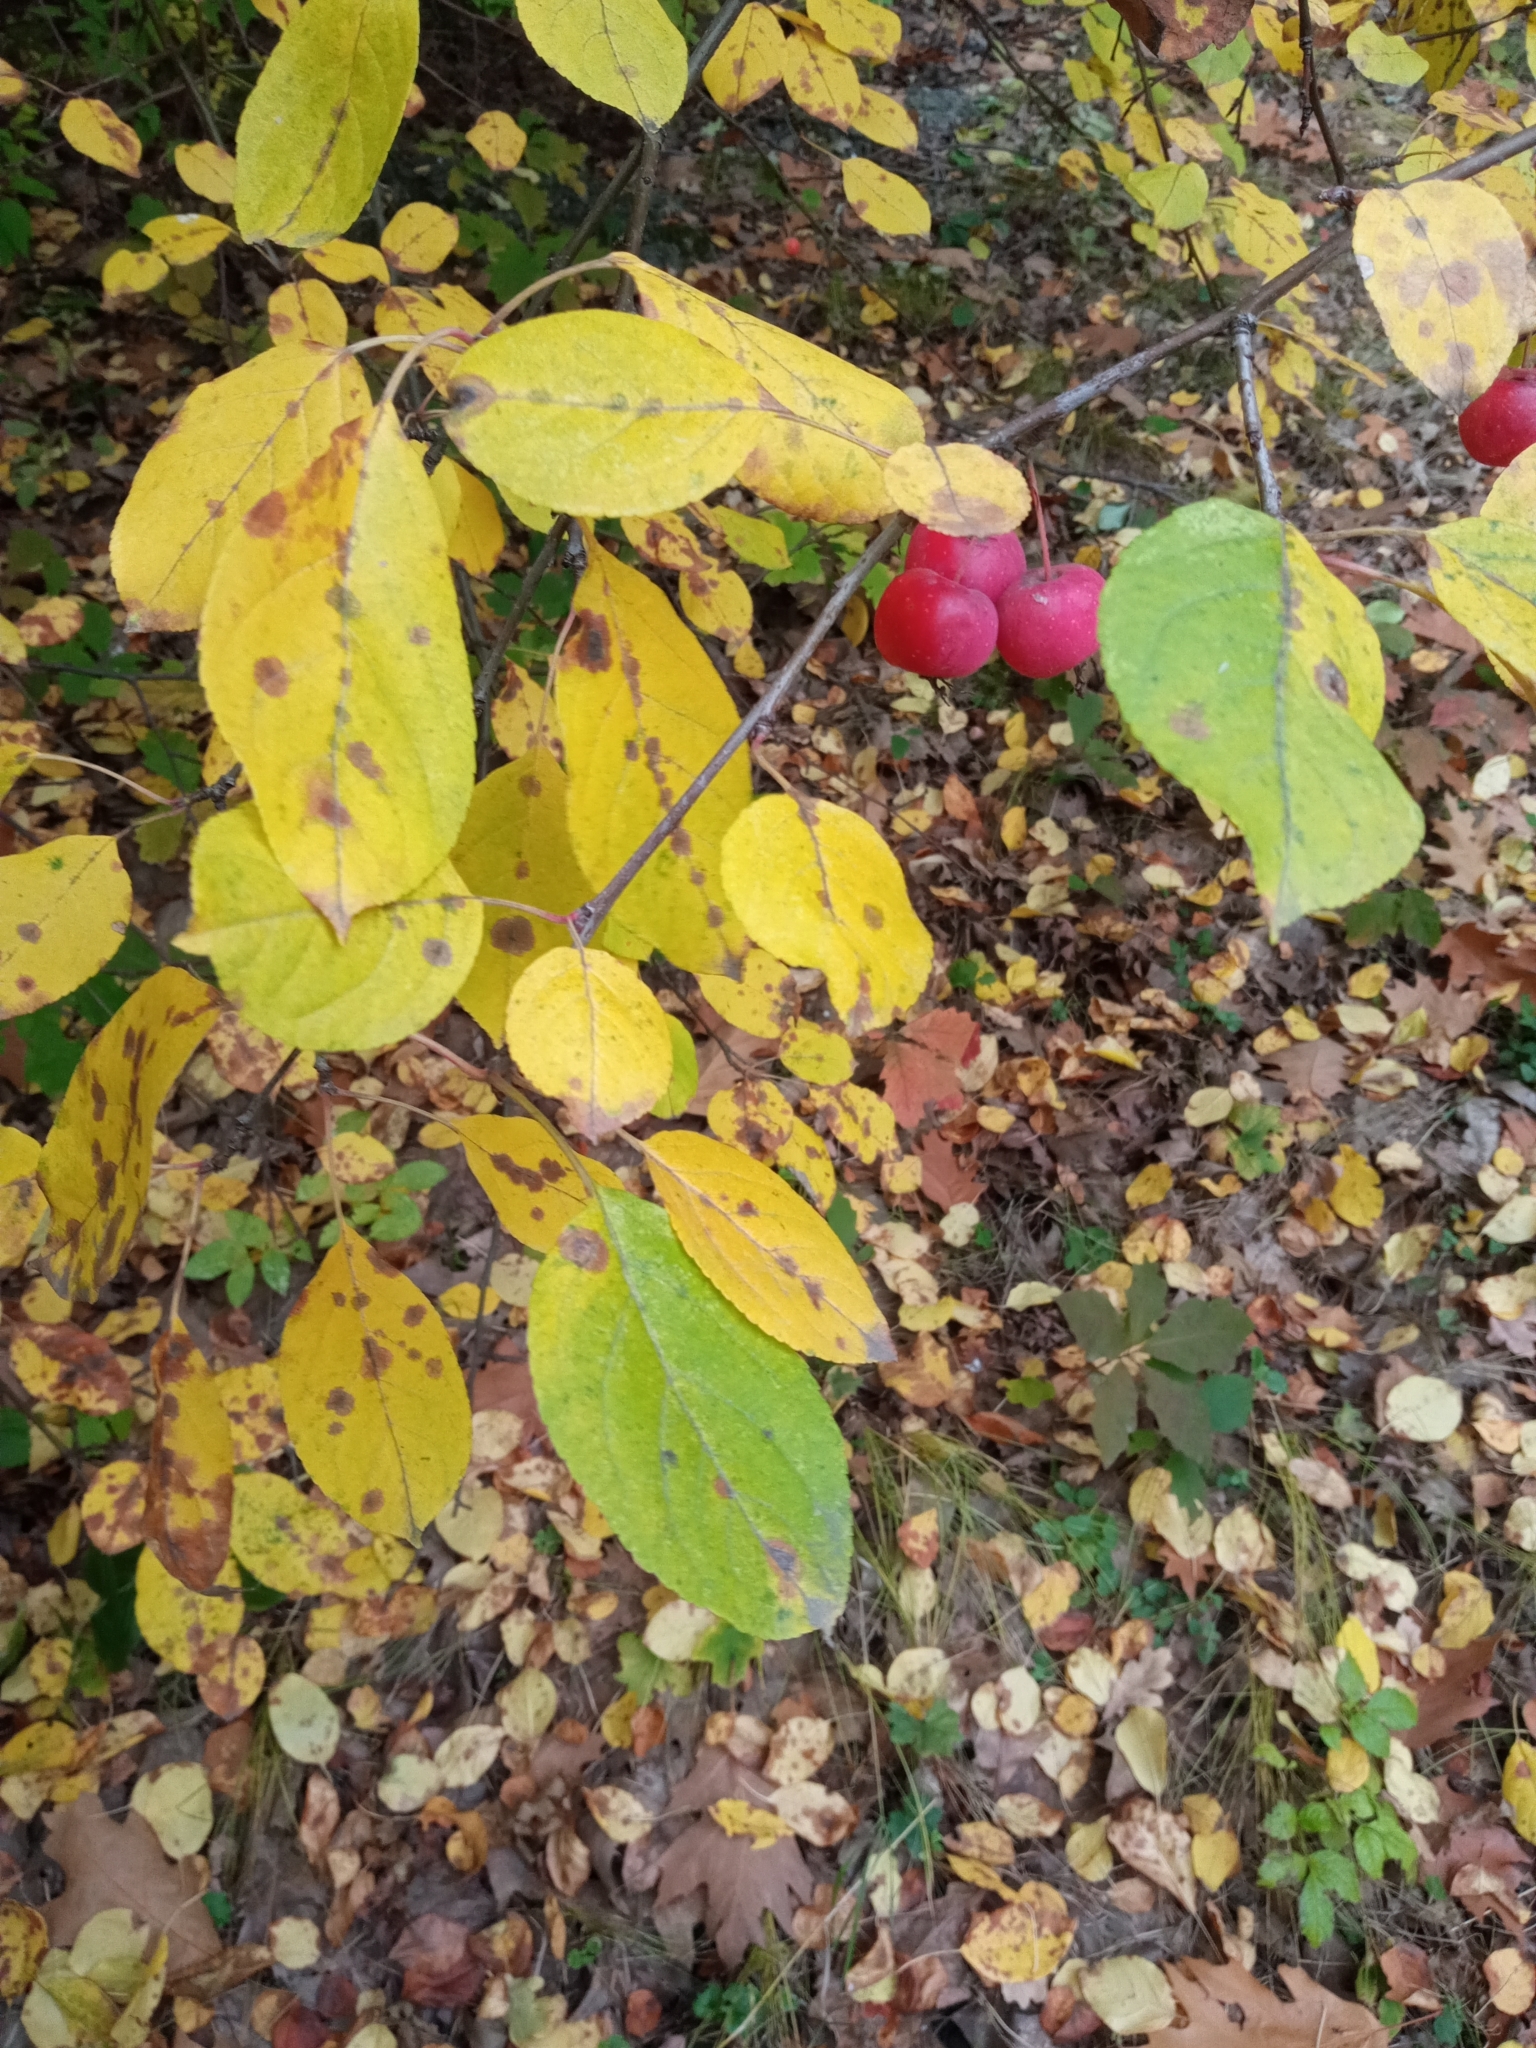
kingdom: Plantae
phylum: Tracheophyta
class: Magnoliopsida
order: Rosales
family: Rosaceae
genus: Malus
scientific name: Malus robusta
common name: Siberian crab apple
